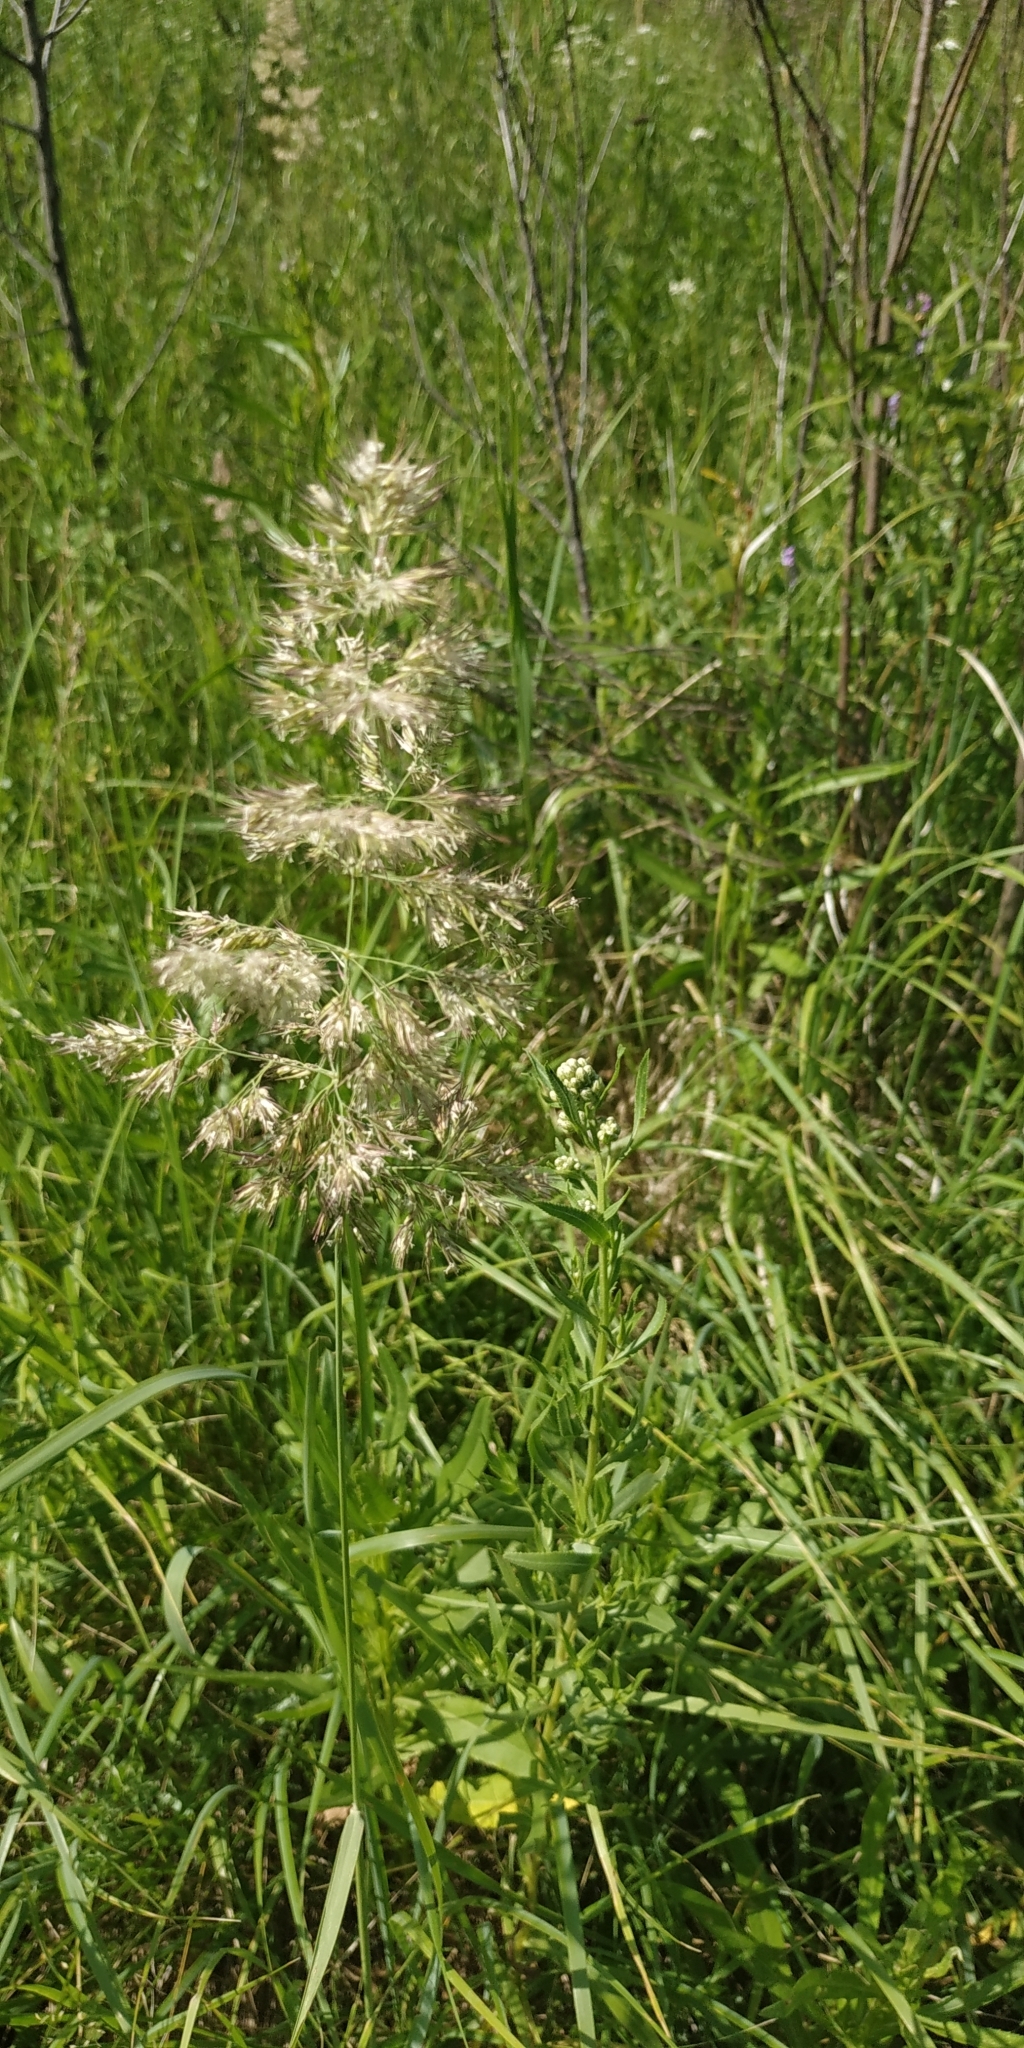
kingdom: Plantae
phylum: Tracheophyta
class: Liliopsida
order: Poales
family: Poaceae
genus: Dactylis
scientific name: Dactylis glomerata
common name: Orchardgrass
